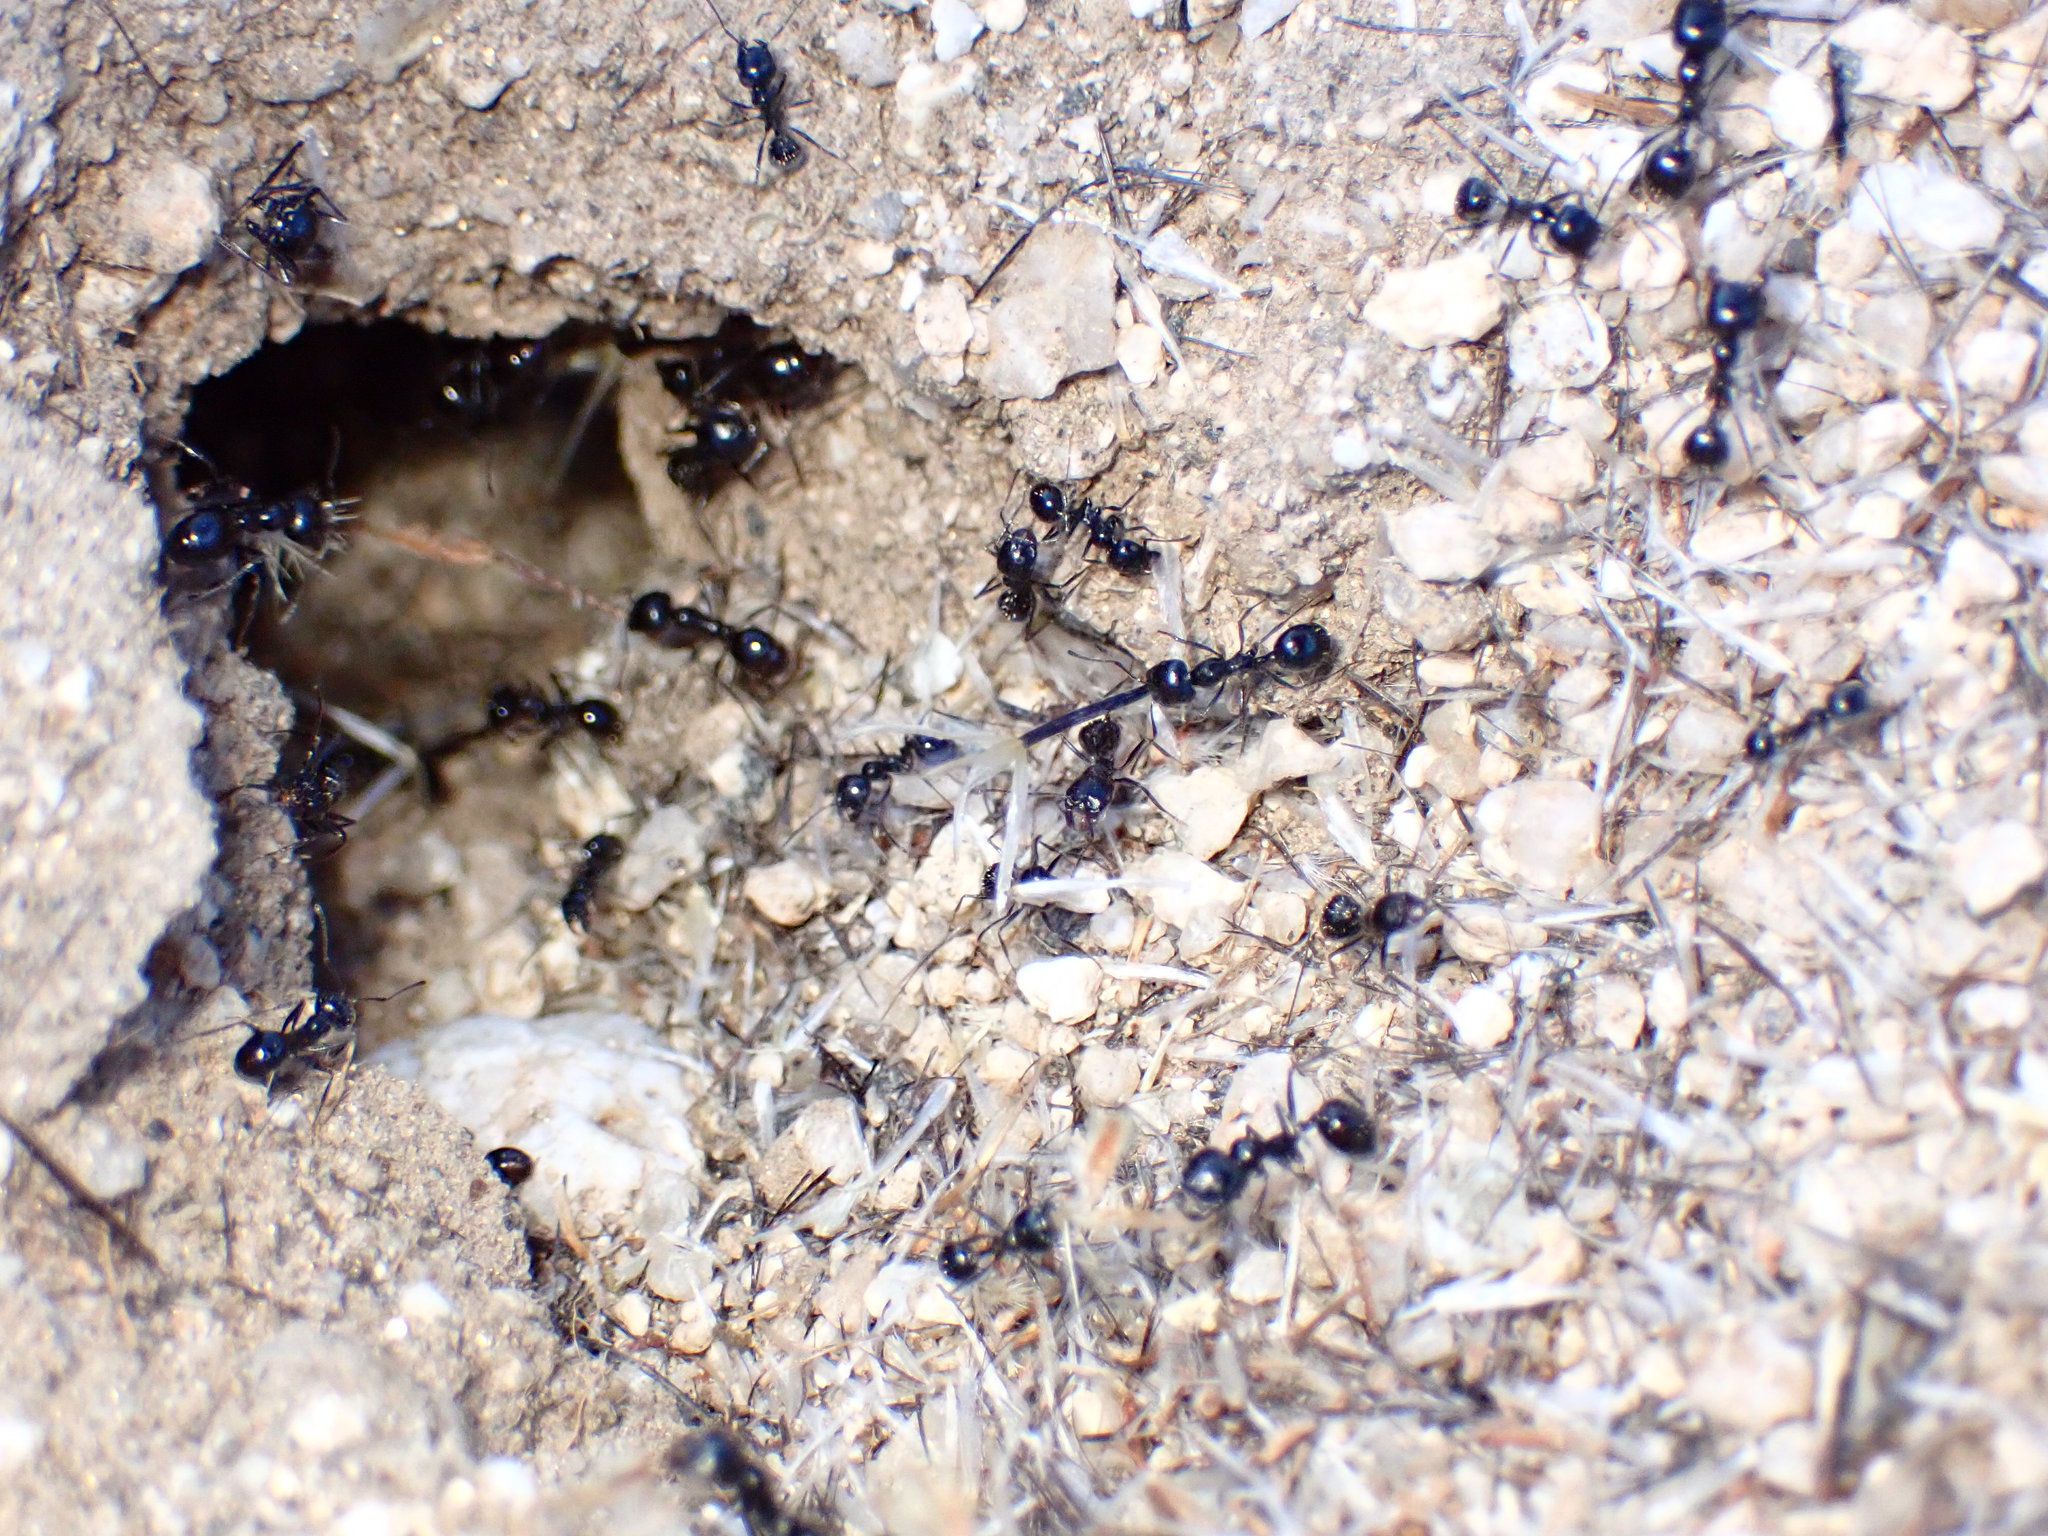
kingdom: Animalia
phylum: Arthropoda
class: Insecta
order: Hymenoptera
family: Formicidae
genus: Messor
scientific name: Messor pergandei
